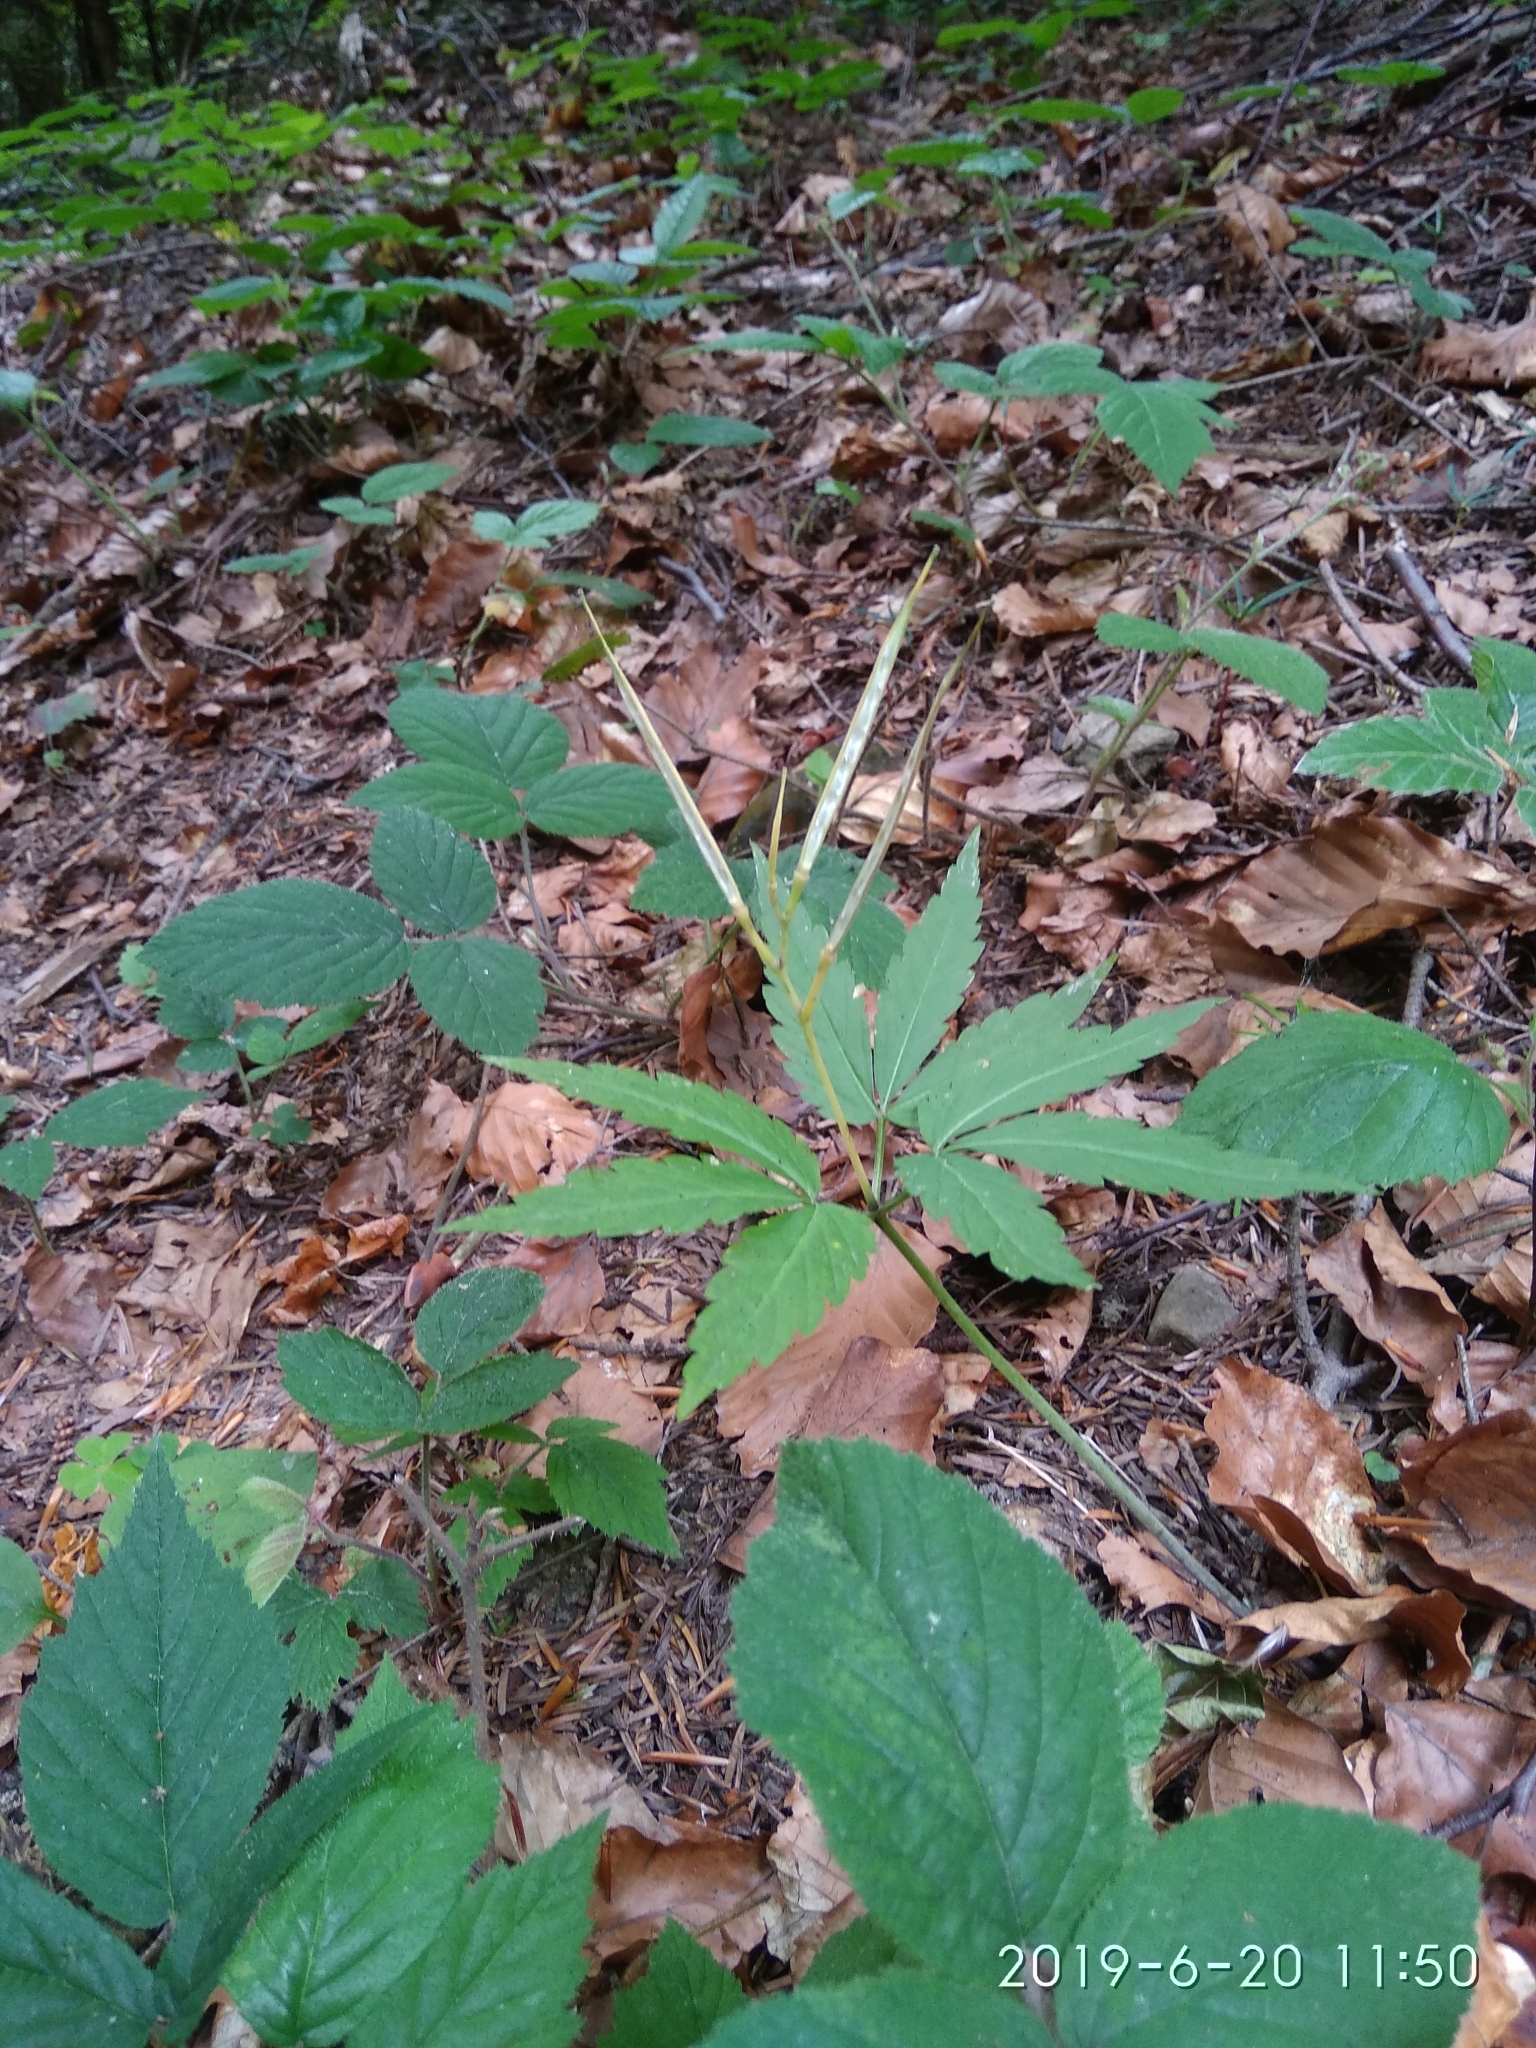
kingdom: Plantae
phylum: Tracheophyta
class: Magnoliopsida
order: Brassicales
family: Brassicaceae
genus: Cardamine
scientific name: Cardamine glanduligera
